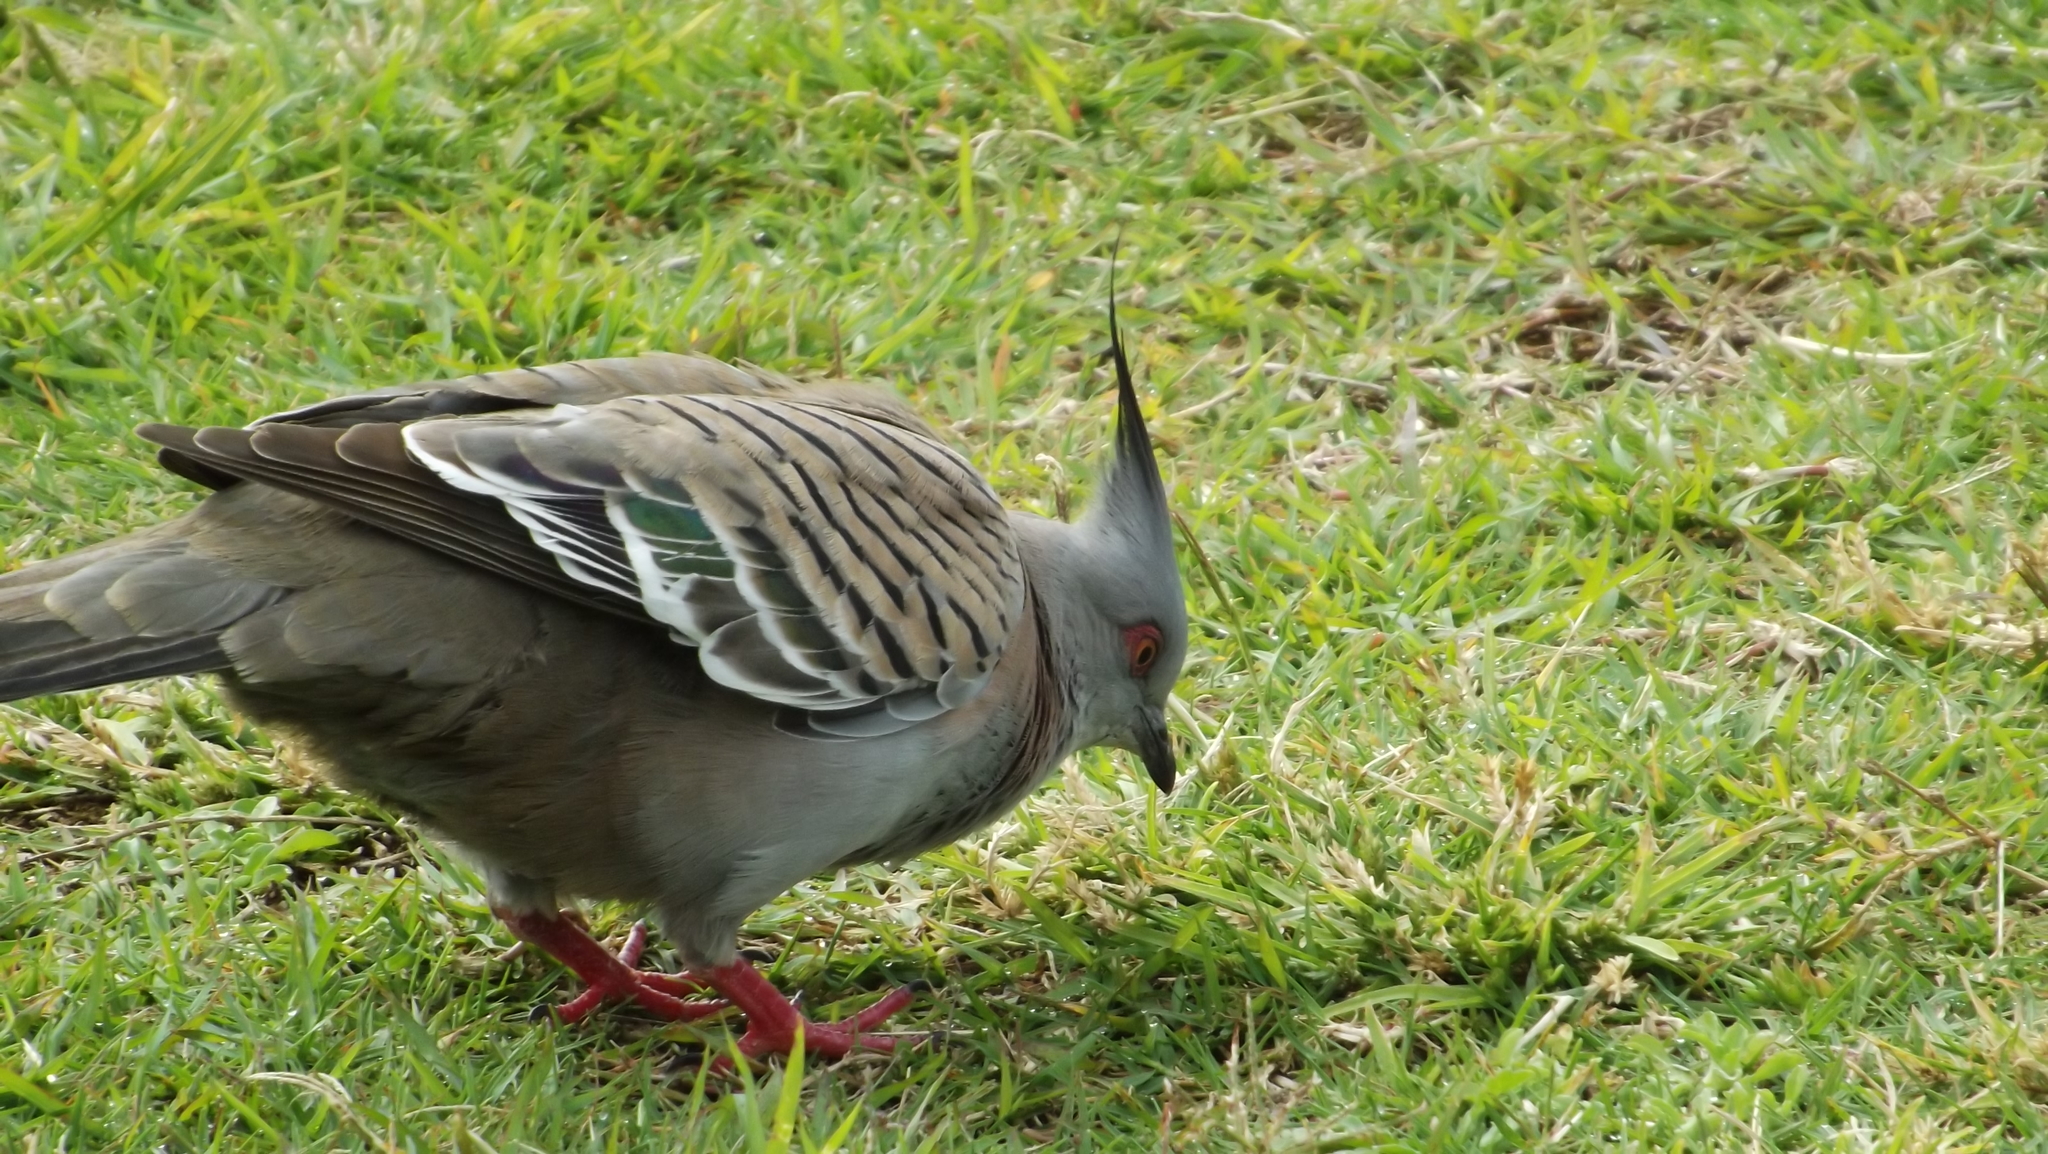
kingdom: Animalia
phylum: Chordata
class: Aves
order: Columbiformes
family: Columbidae
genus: Ocyphaps
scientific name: Ocyphaps lophotes
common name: Crested pigeon
